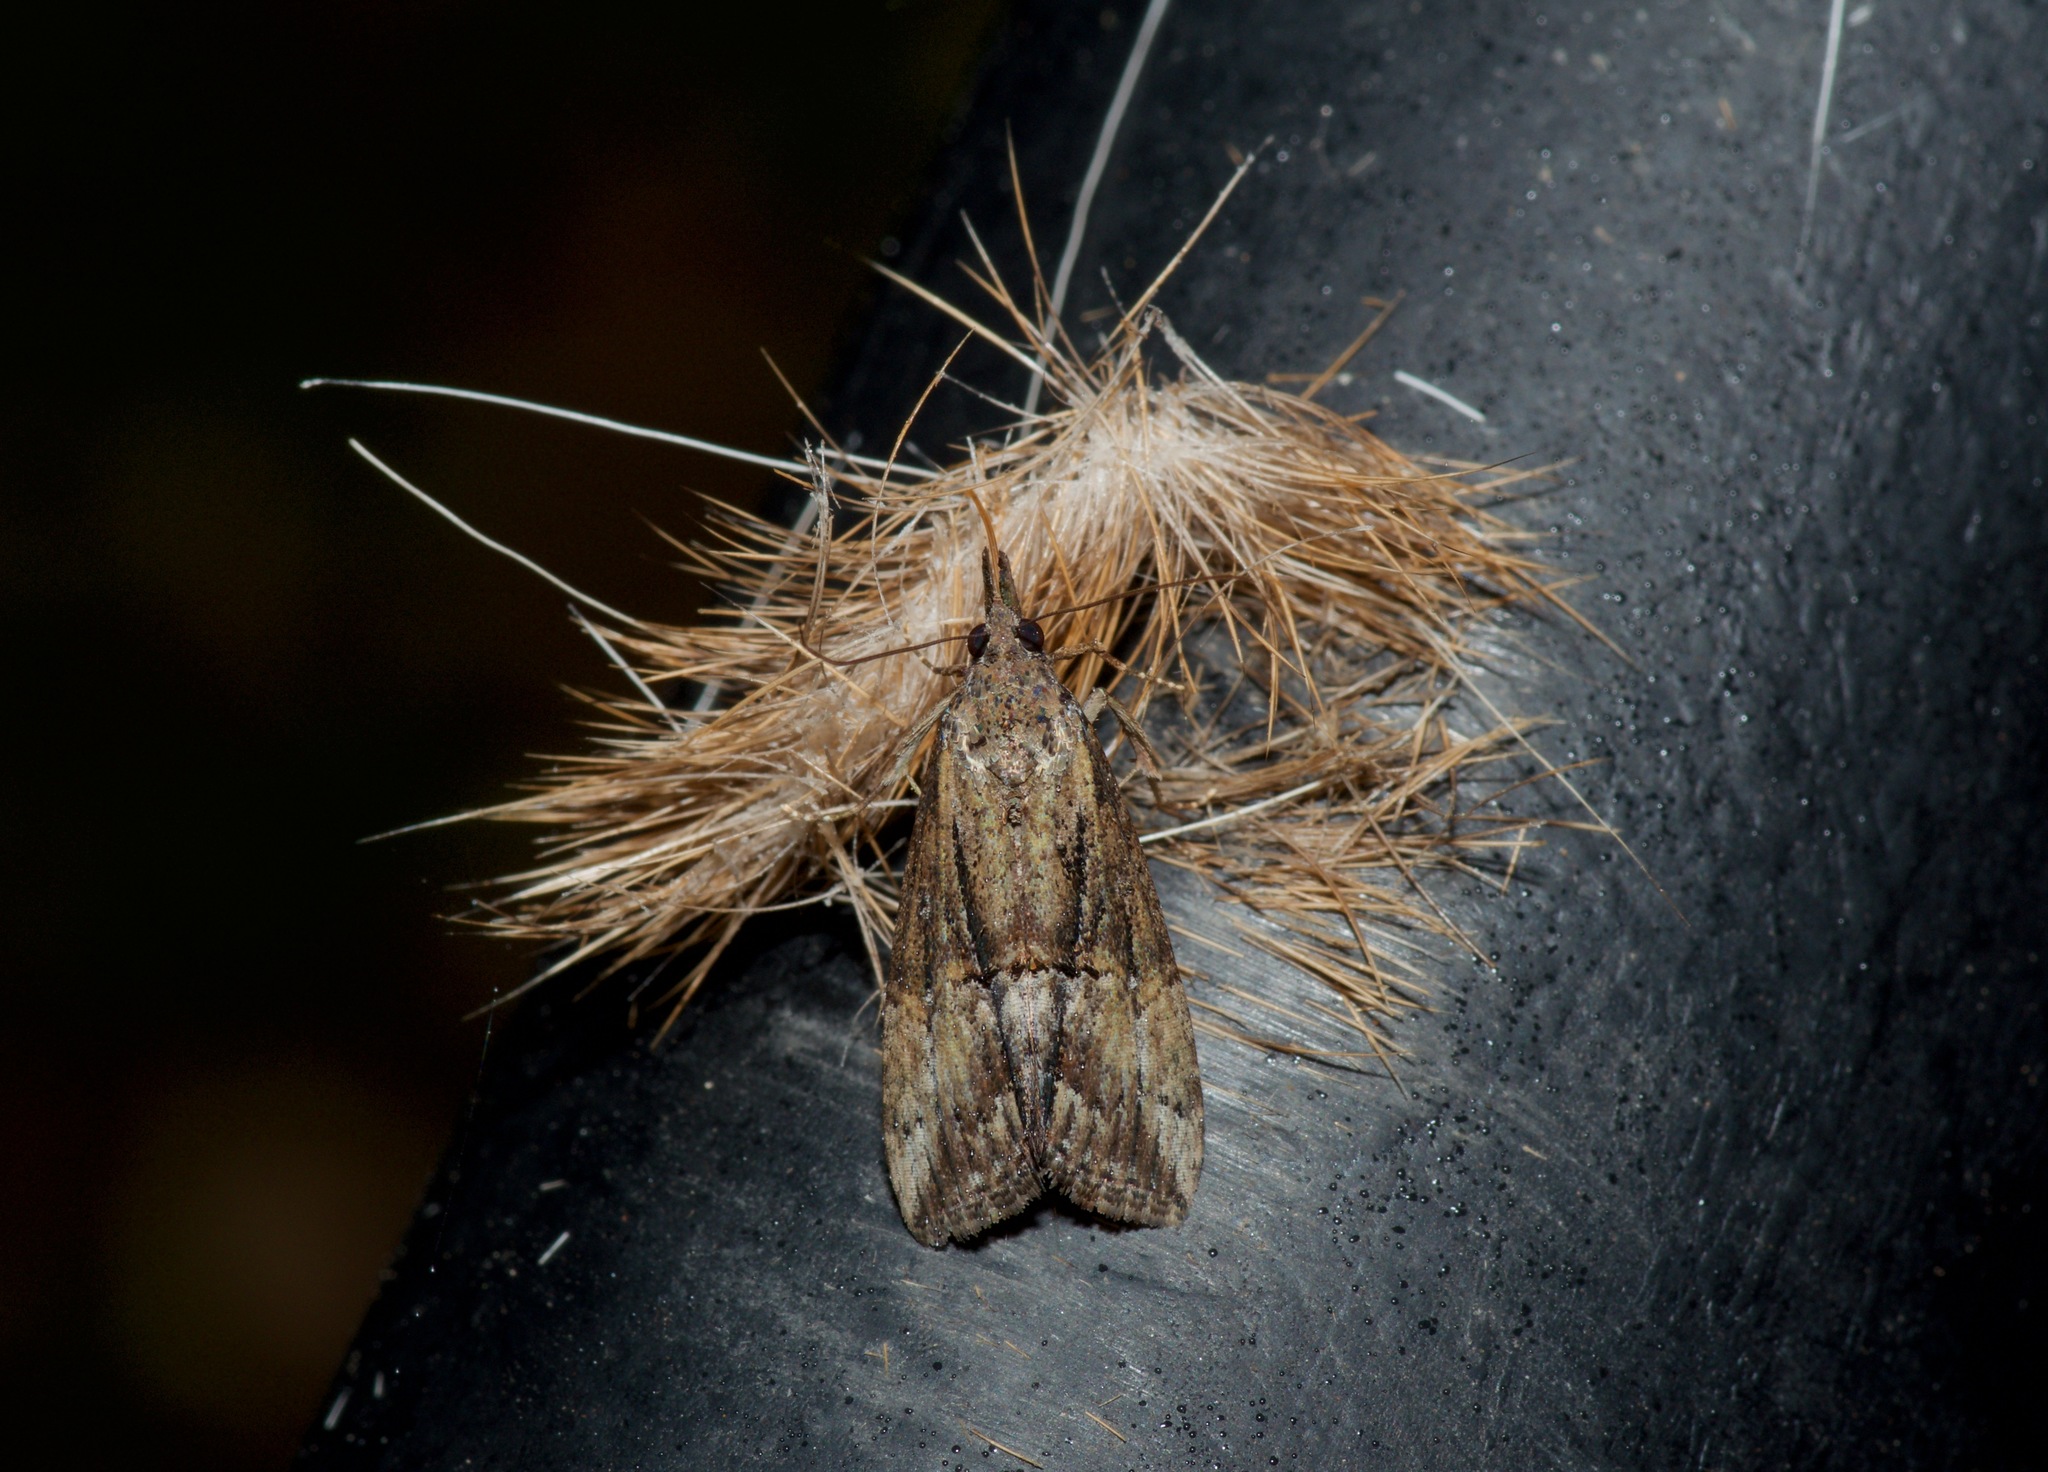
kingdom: Animalia
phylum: Arthropoda
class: Insecta
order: Lepidoptera
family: Erebidae
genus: Hypena
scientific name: Hypena scabra
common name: Green cloverworm
